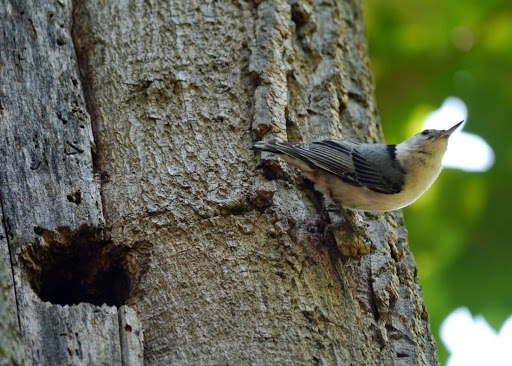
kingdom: Animalia
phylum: Chordata
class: Aves
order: Passeriformes
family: Sittidae
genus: Sitta
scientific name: Sitta carolinensis
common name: White-breasted nuthatch
